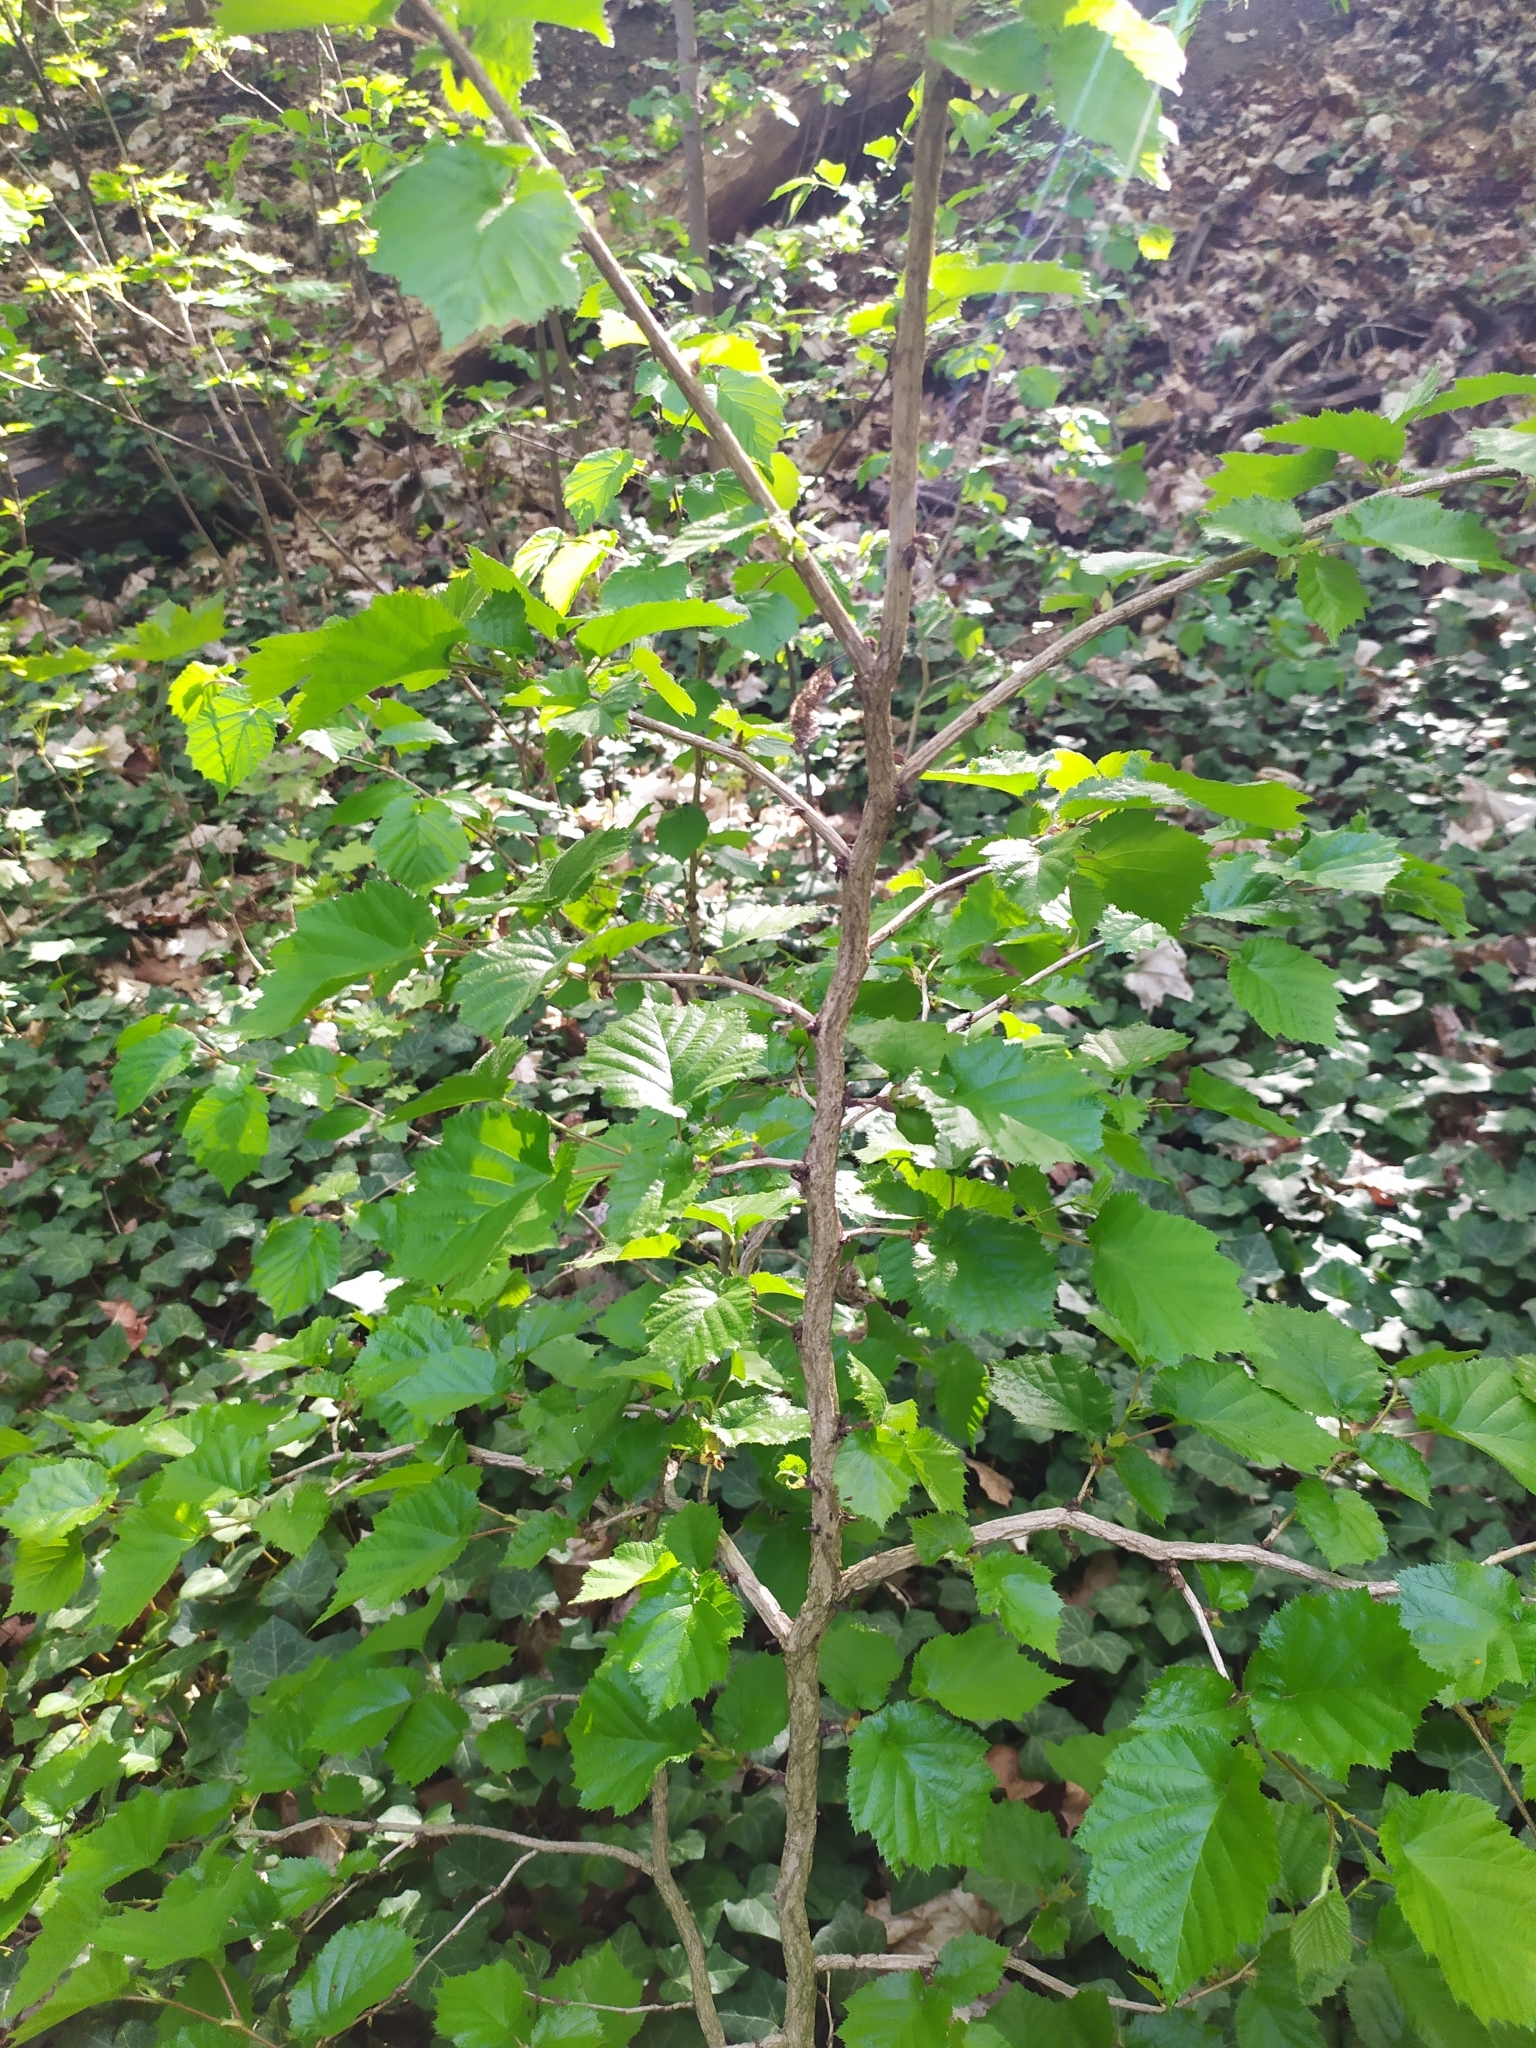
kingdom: Plantae
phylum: Tracheophyta
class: Magnoliopsida
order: Fagales
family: Betulaceae
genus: Corylus
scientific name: Corylus avellana
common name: European hazel
